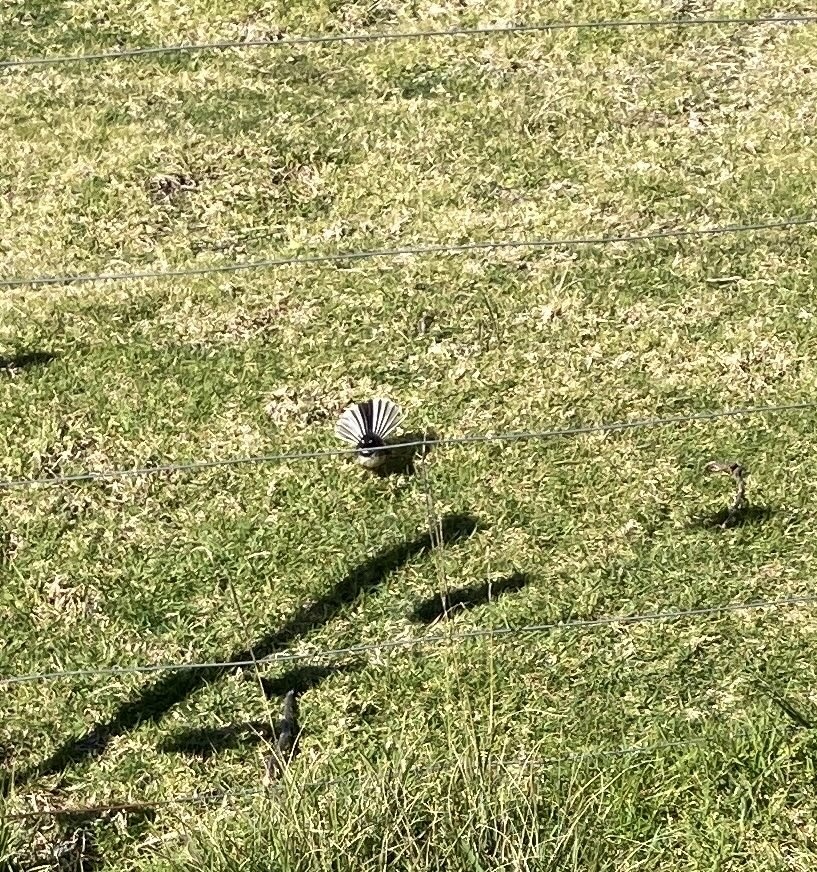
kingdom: Animalia
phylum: Chordata
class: Aves
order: Passeriformes
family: Rhipiduridae
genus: Rhipidura
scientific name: Rhipidura fuliginosa
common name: New zealand fantail
